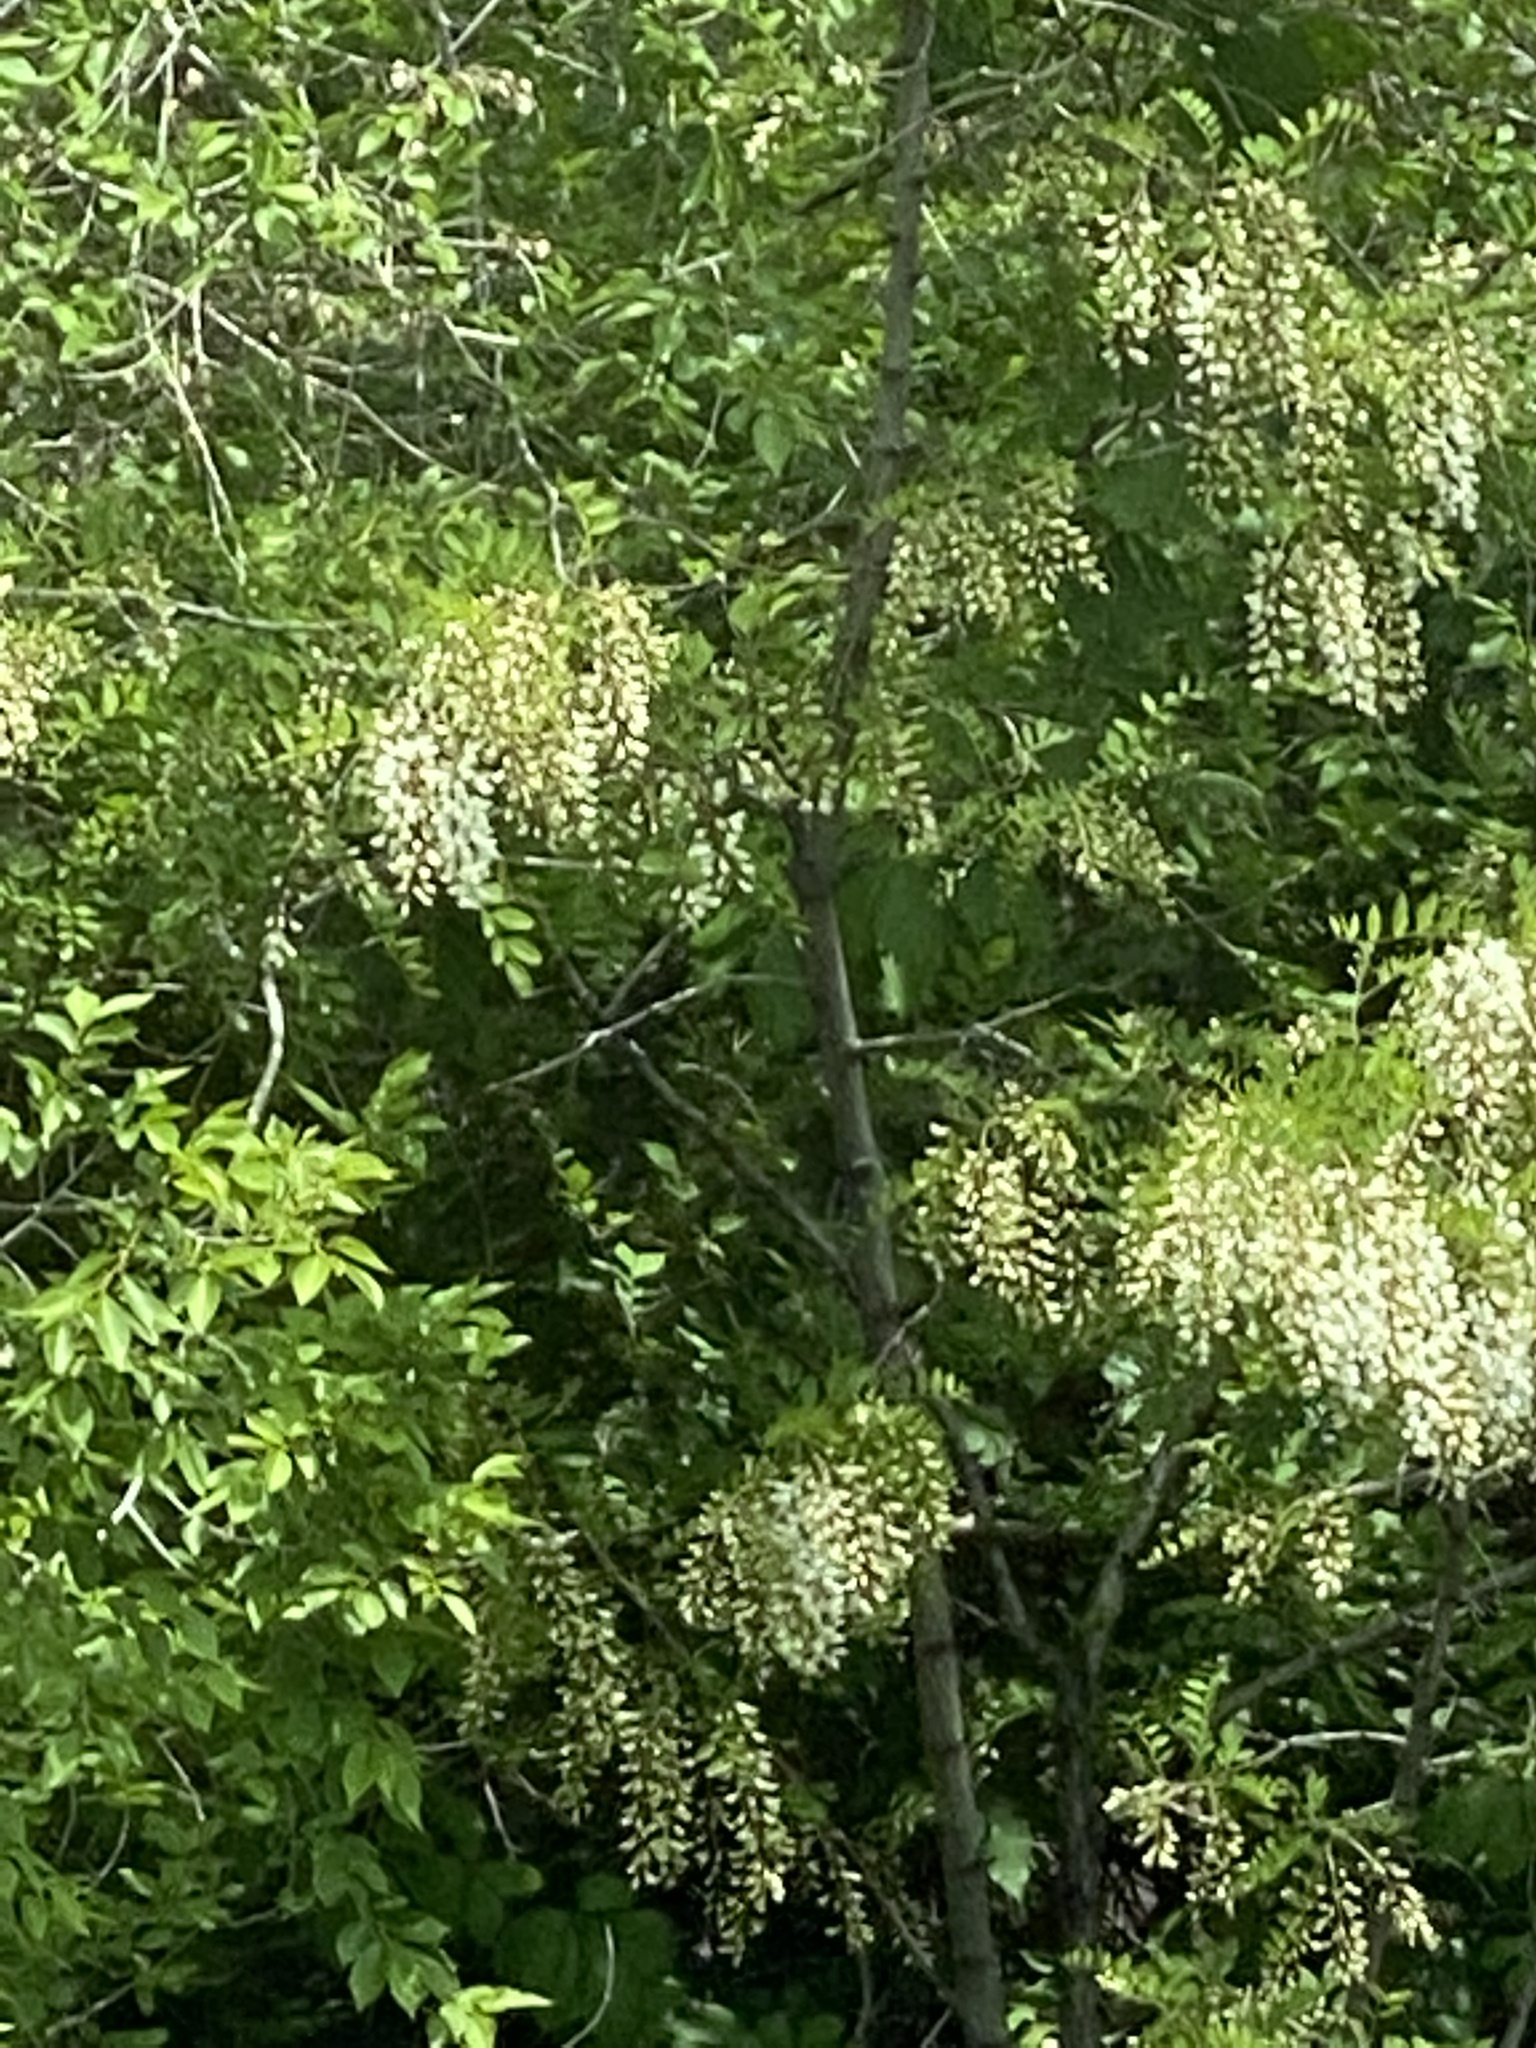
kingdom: Plantae
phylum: Tracheophyta
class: Magnoliopsida
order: Fabales
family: Fabaceae
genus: Robinia
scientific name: Robinia pseudoacacia
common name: Black locust
